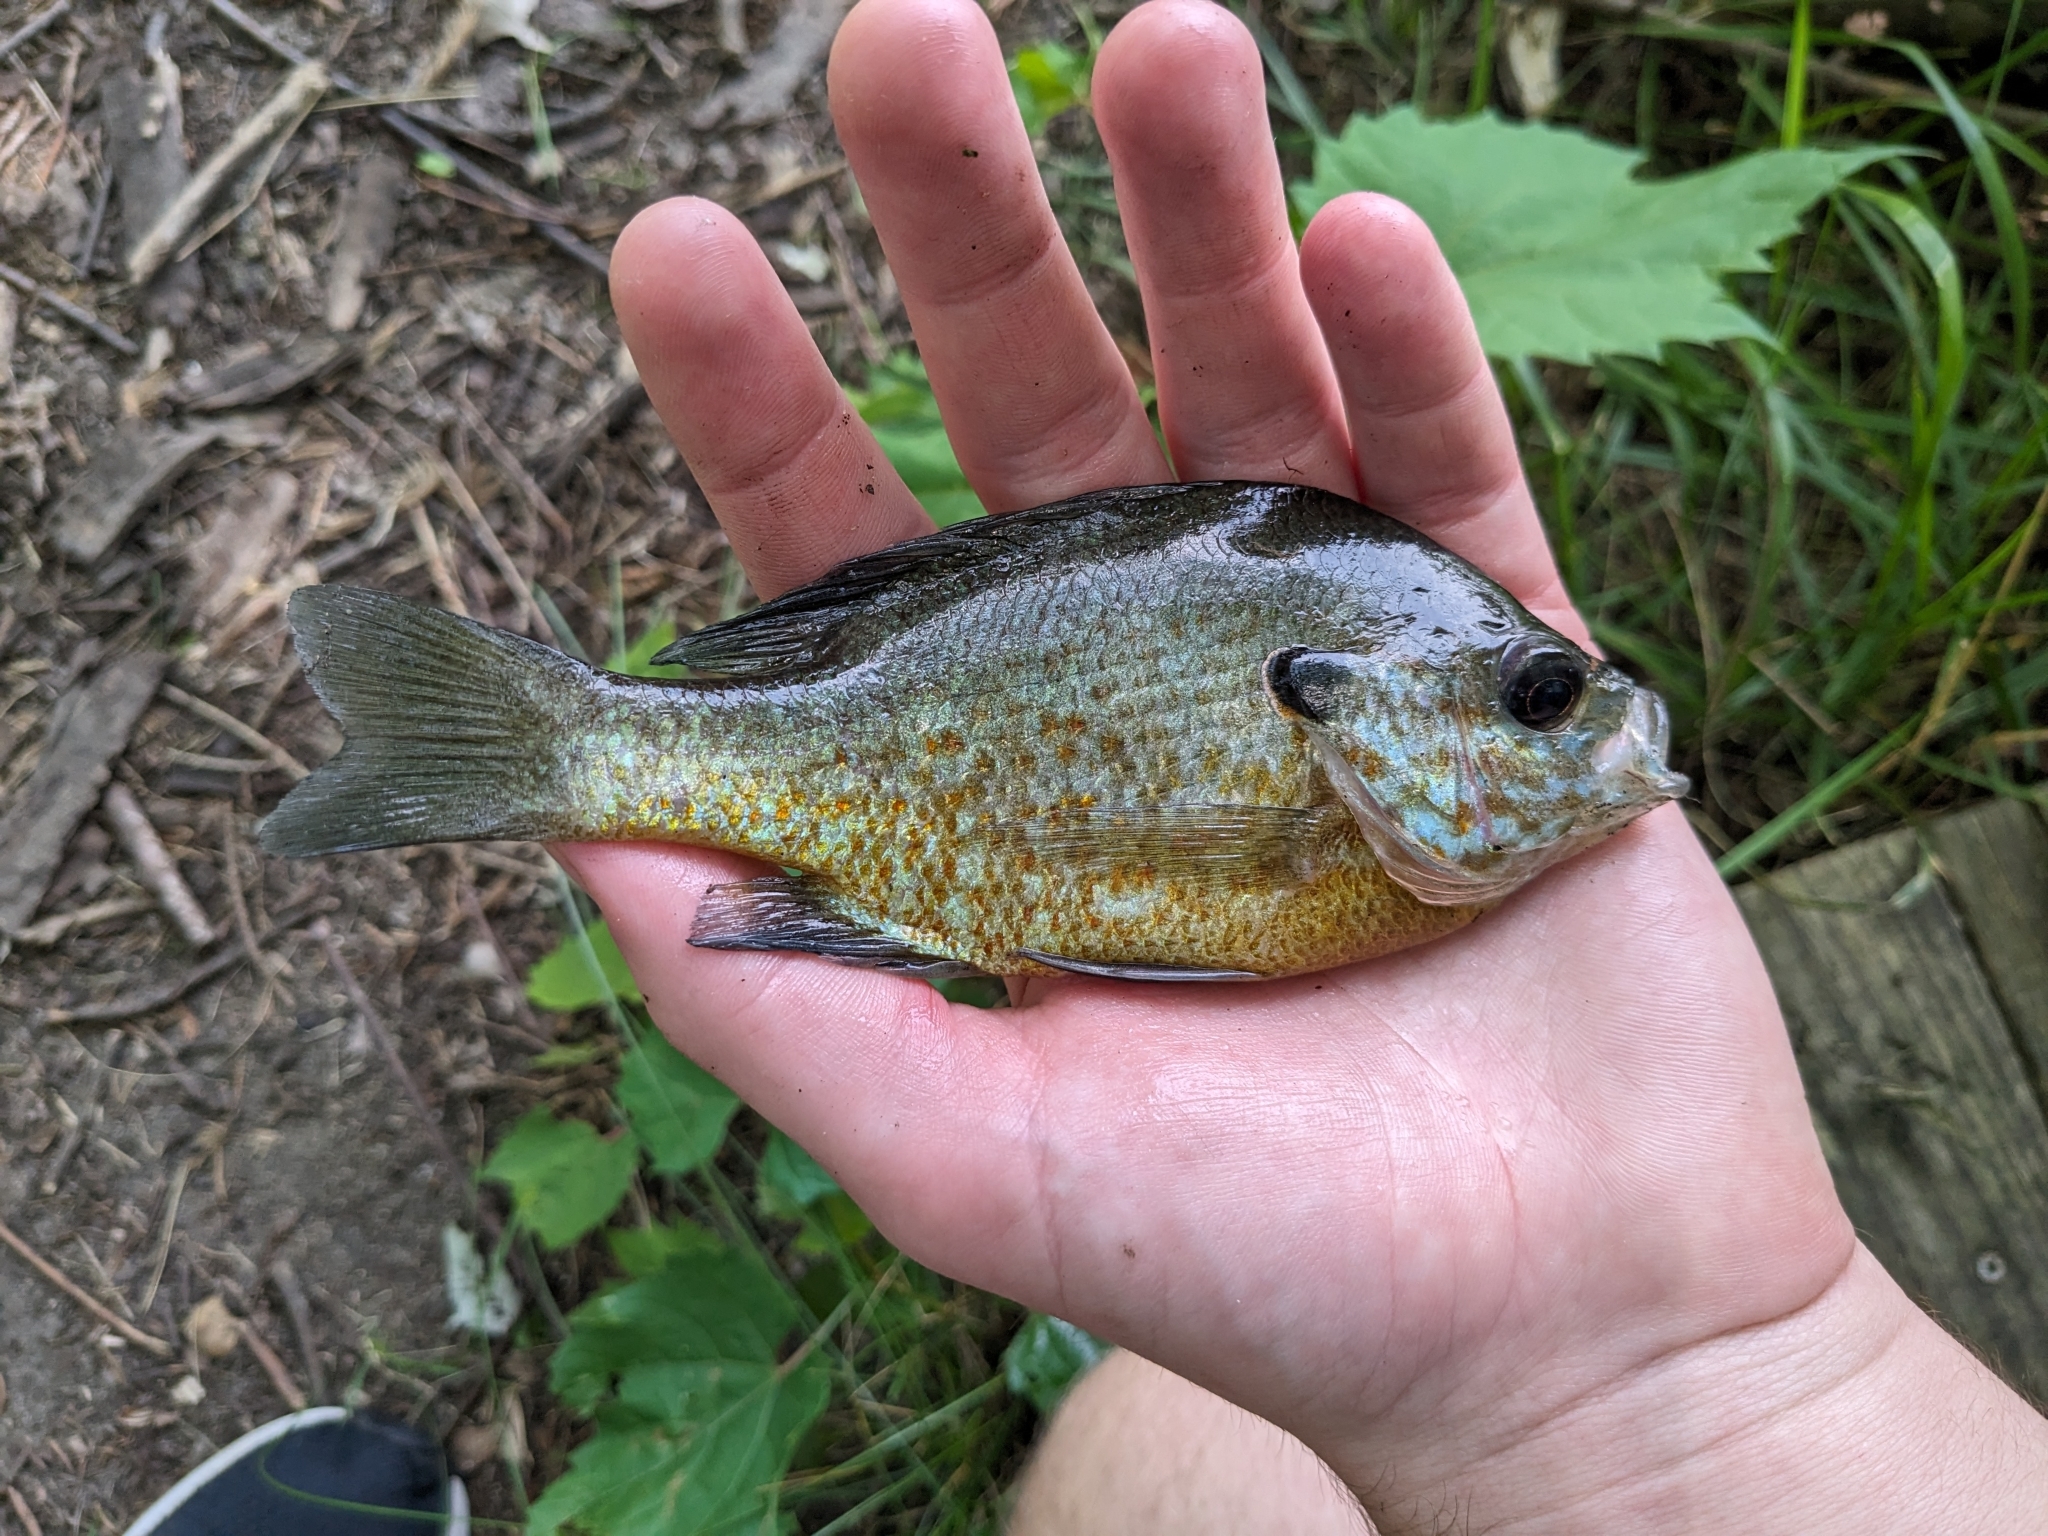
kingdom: Animalia
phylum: Chordata
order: Perciformes
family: Centrarchidae
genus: Lepomis
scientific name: Lepomis
